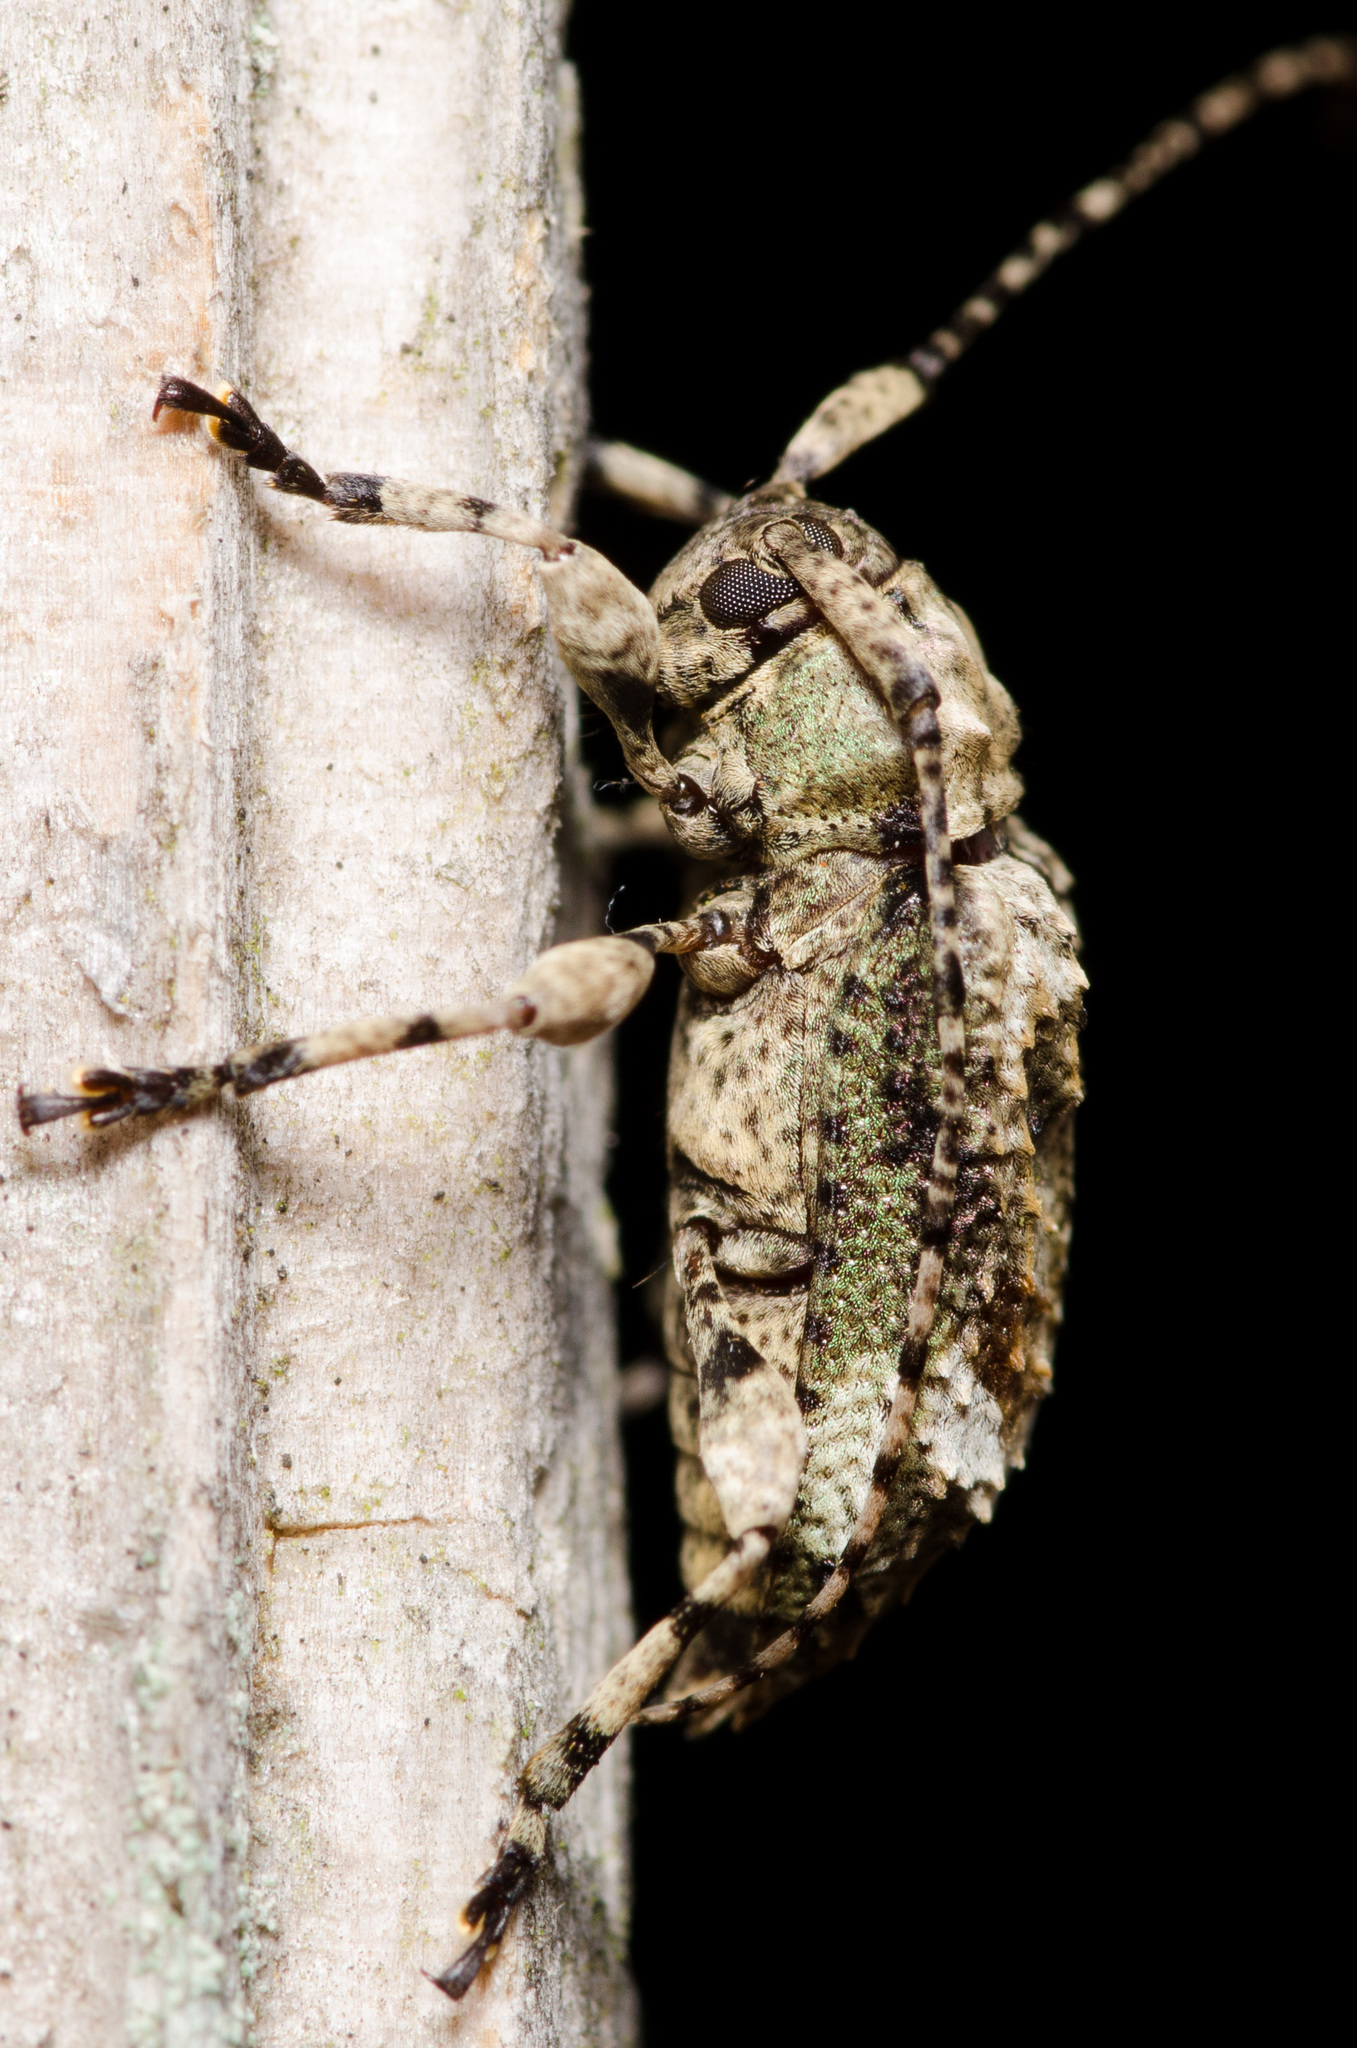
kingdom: Animalia
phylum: Arthropoda
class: Insecta
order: Coleoptera
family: Cerambycidae
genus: Leptostylus
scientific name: Leptostylus transversus
